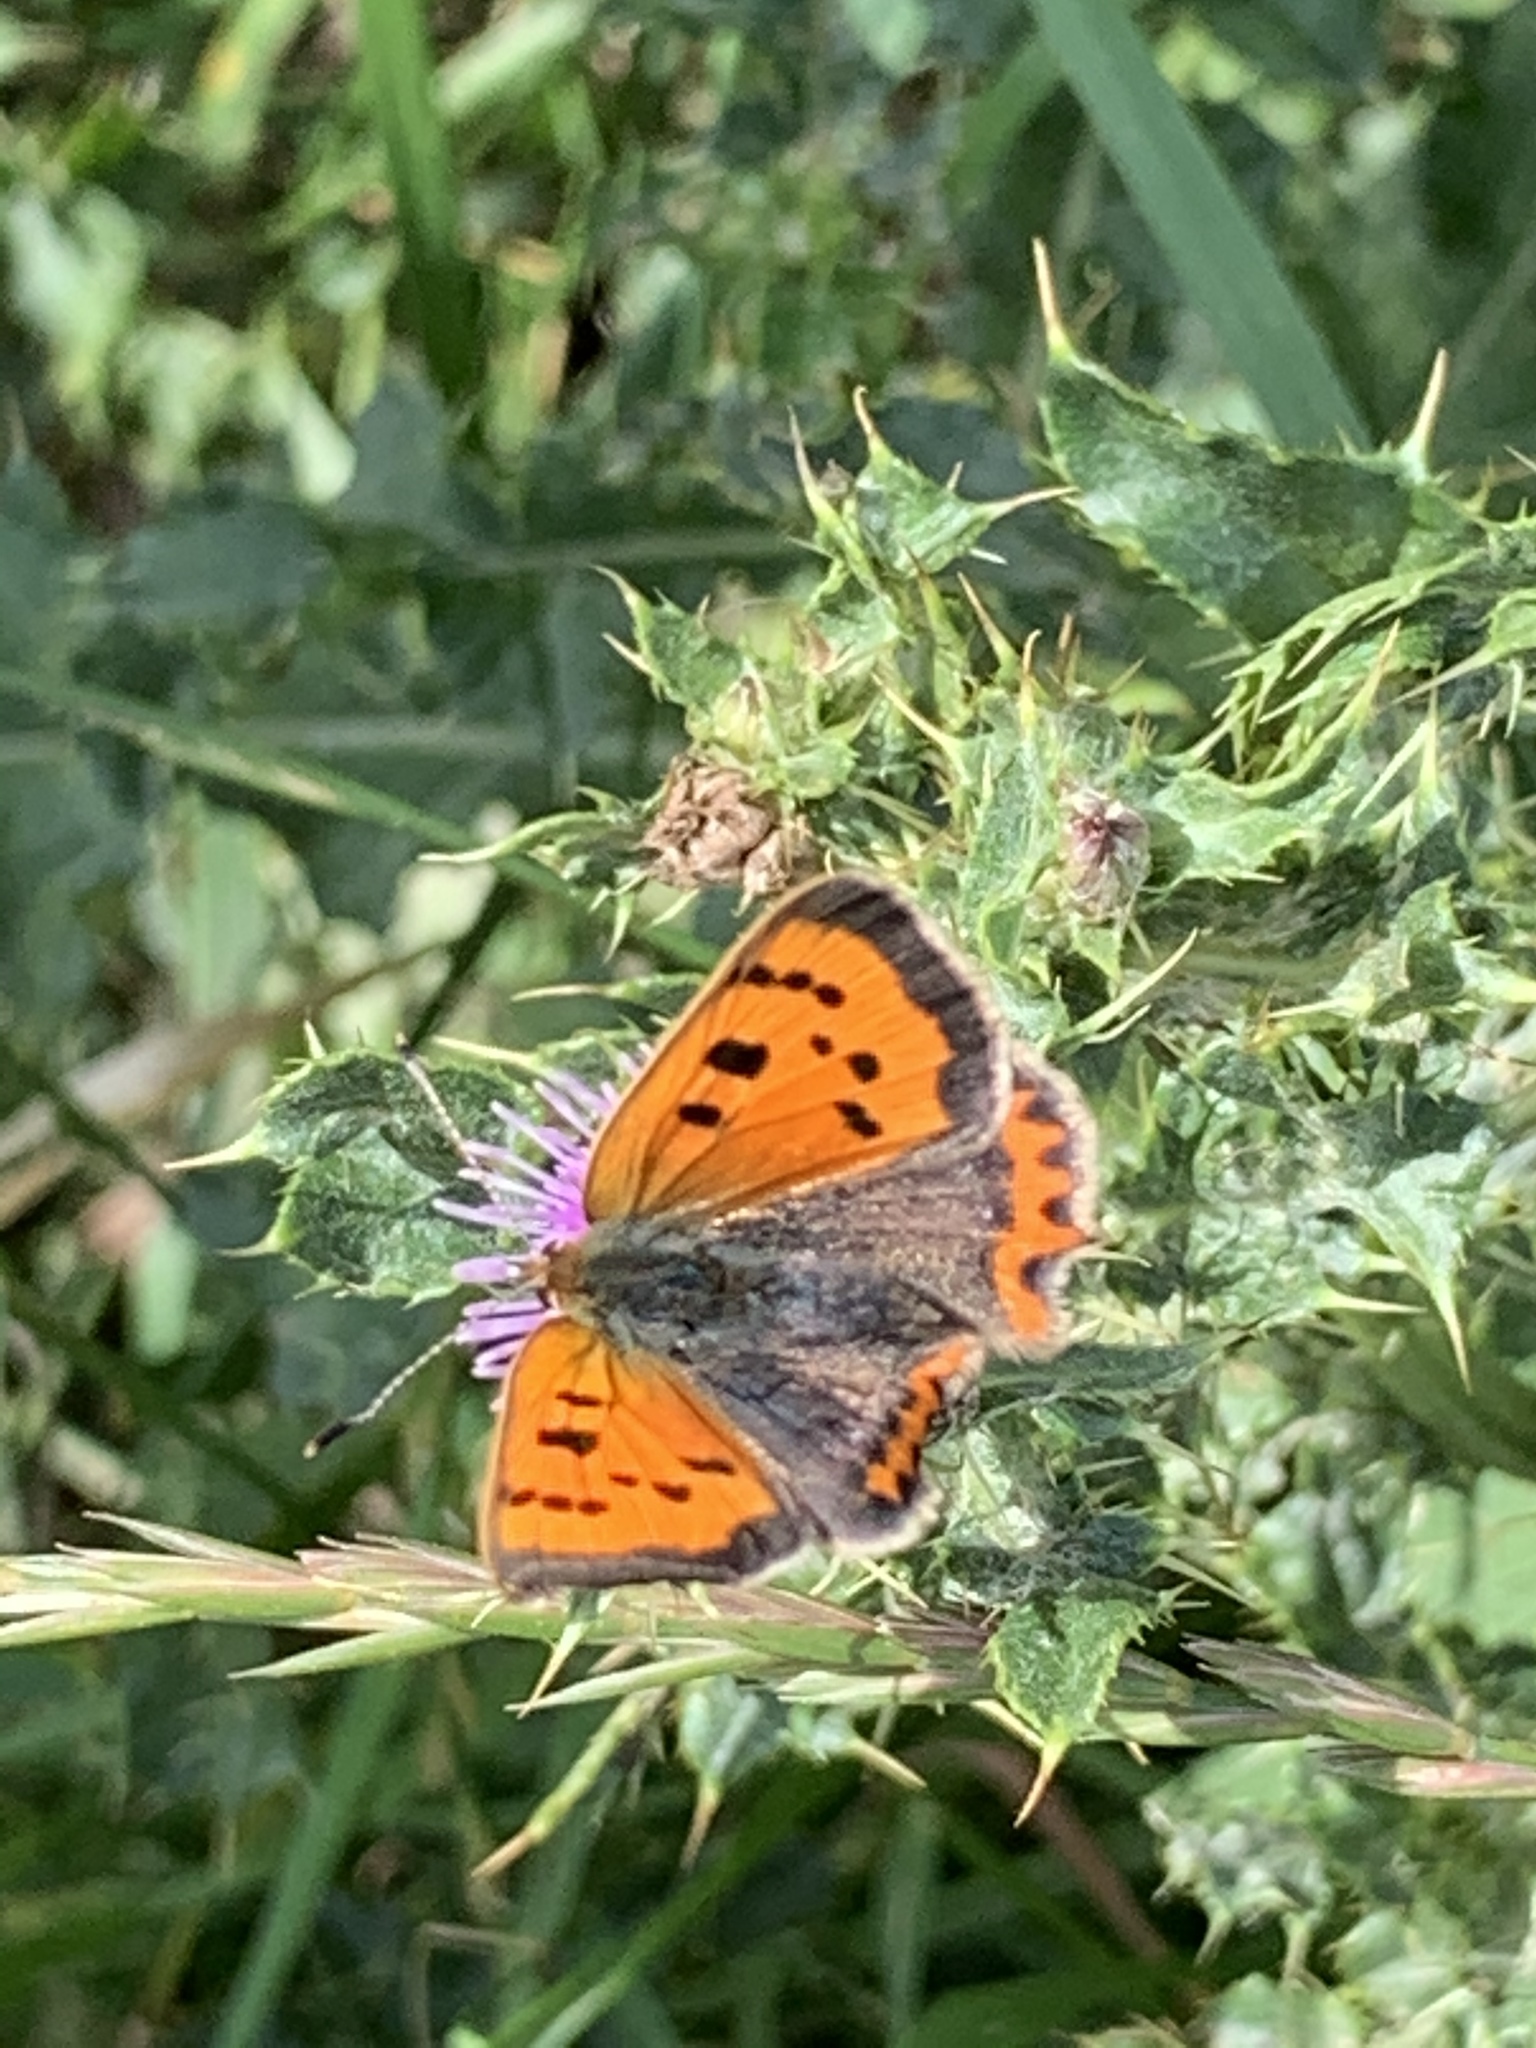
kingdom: Animalia
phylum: Arthropoda
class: Insecta
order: Lepidoptera
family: Lycaenidae
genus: Lycaena
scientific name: Lycaena phlaeas
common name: Small copper
